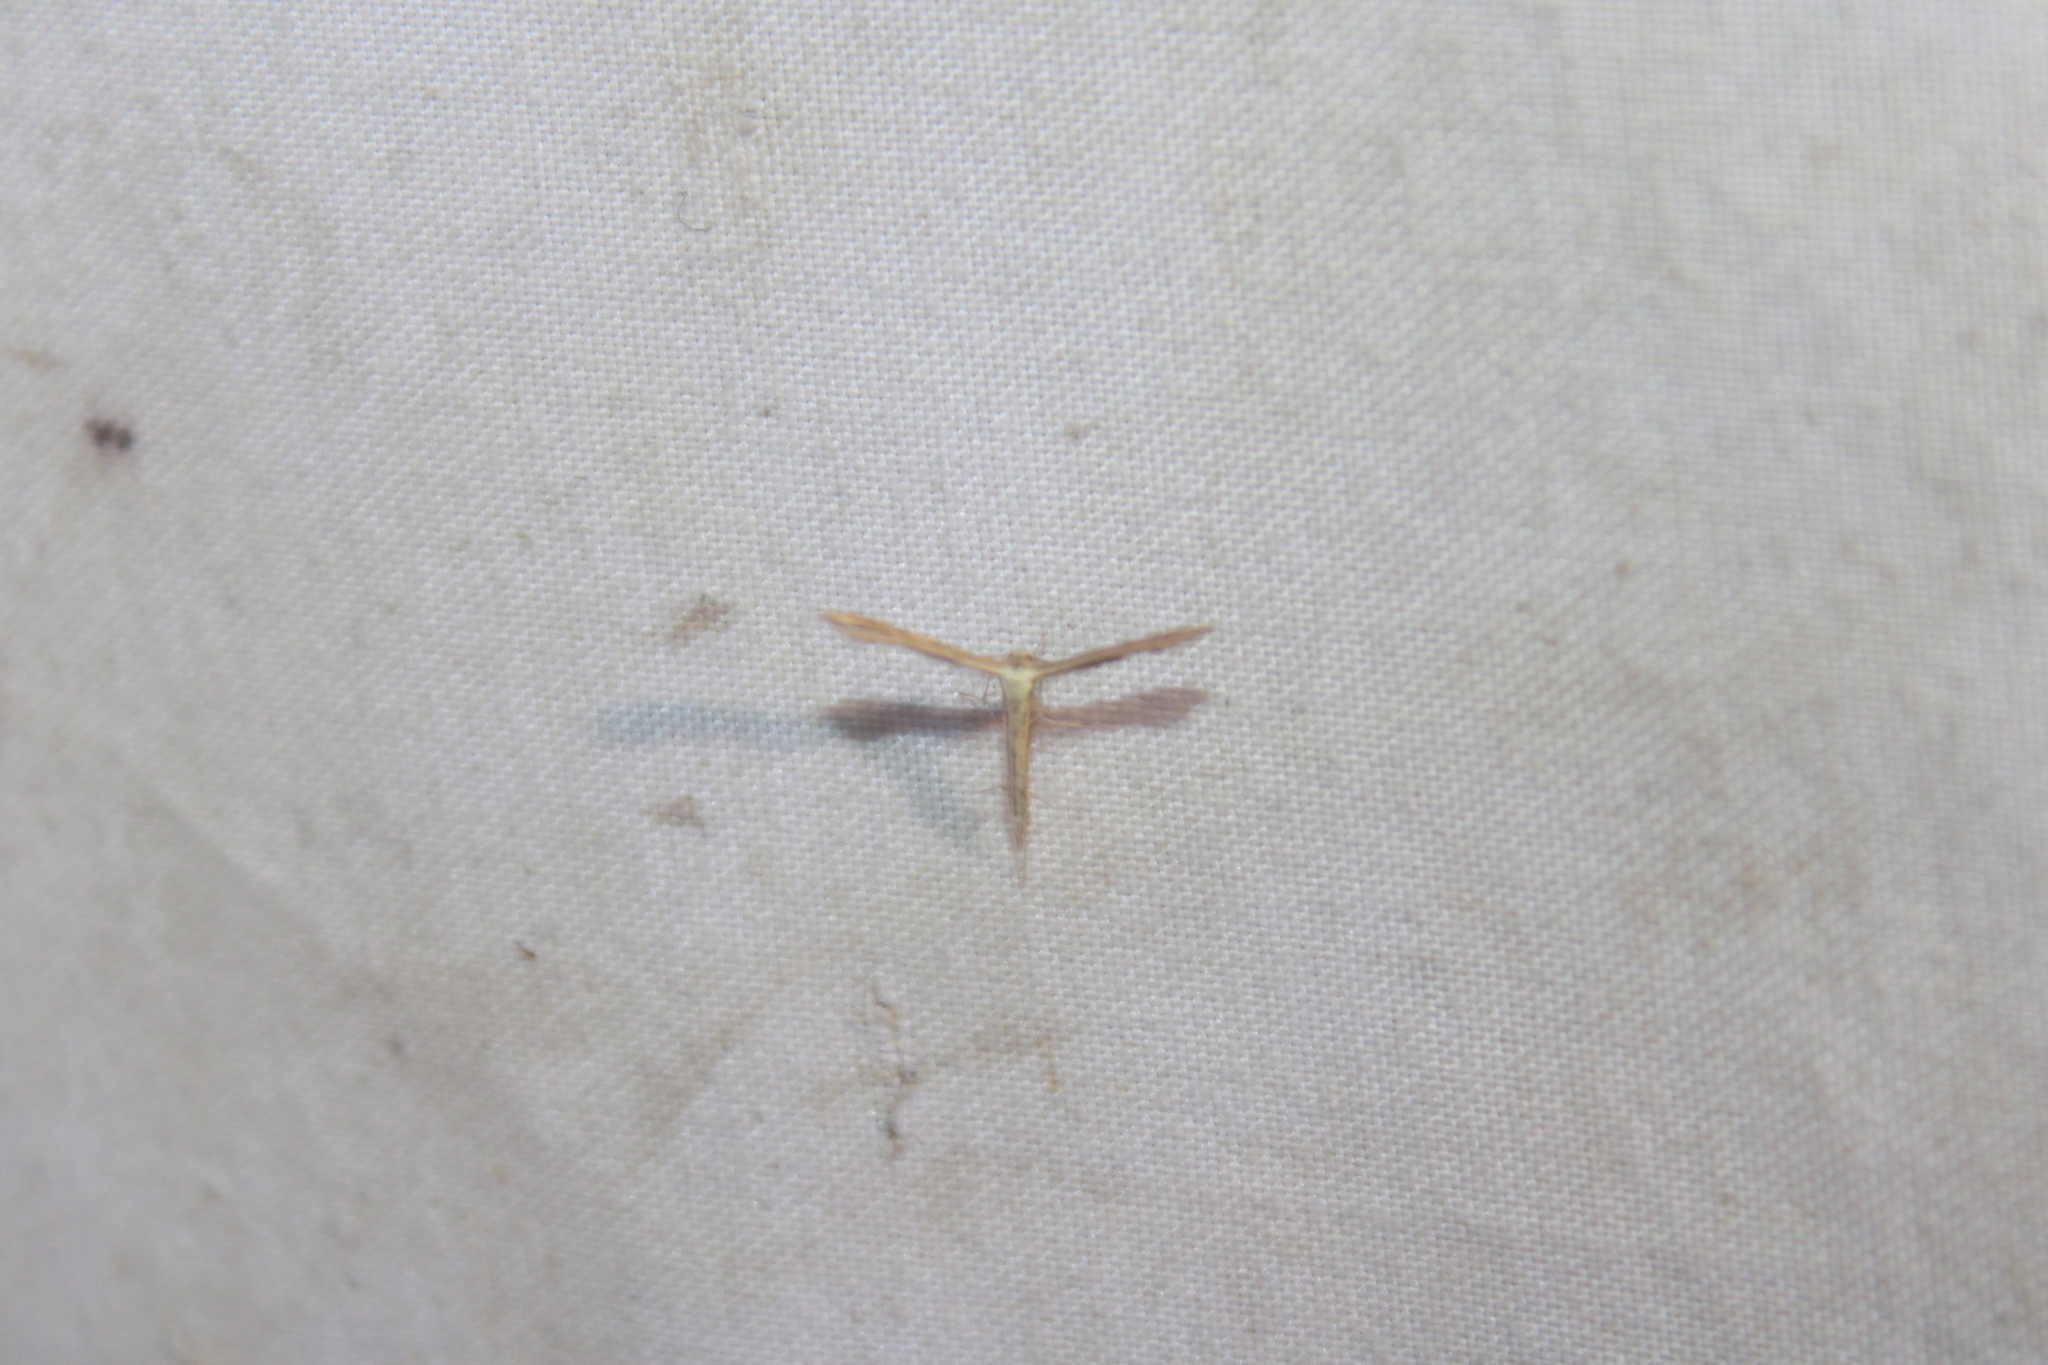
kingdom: Animalia
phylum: Arthropoda
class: Insecta
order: Lepidoptera
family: Pterophoridae
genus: Exelastis
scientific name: Exelastis pumilio
